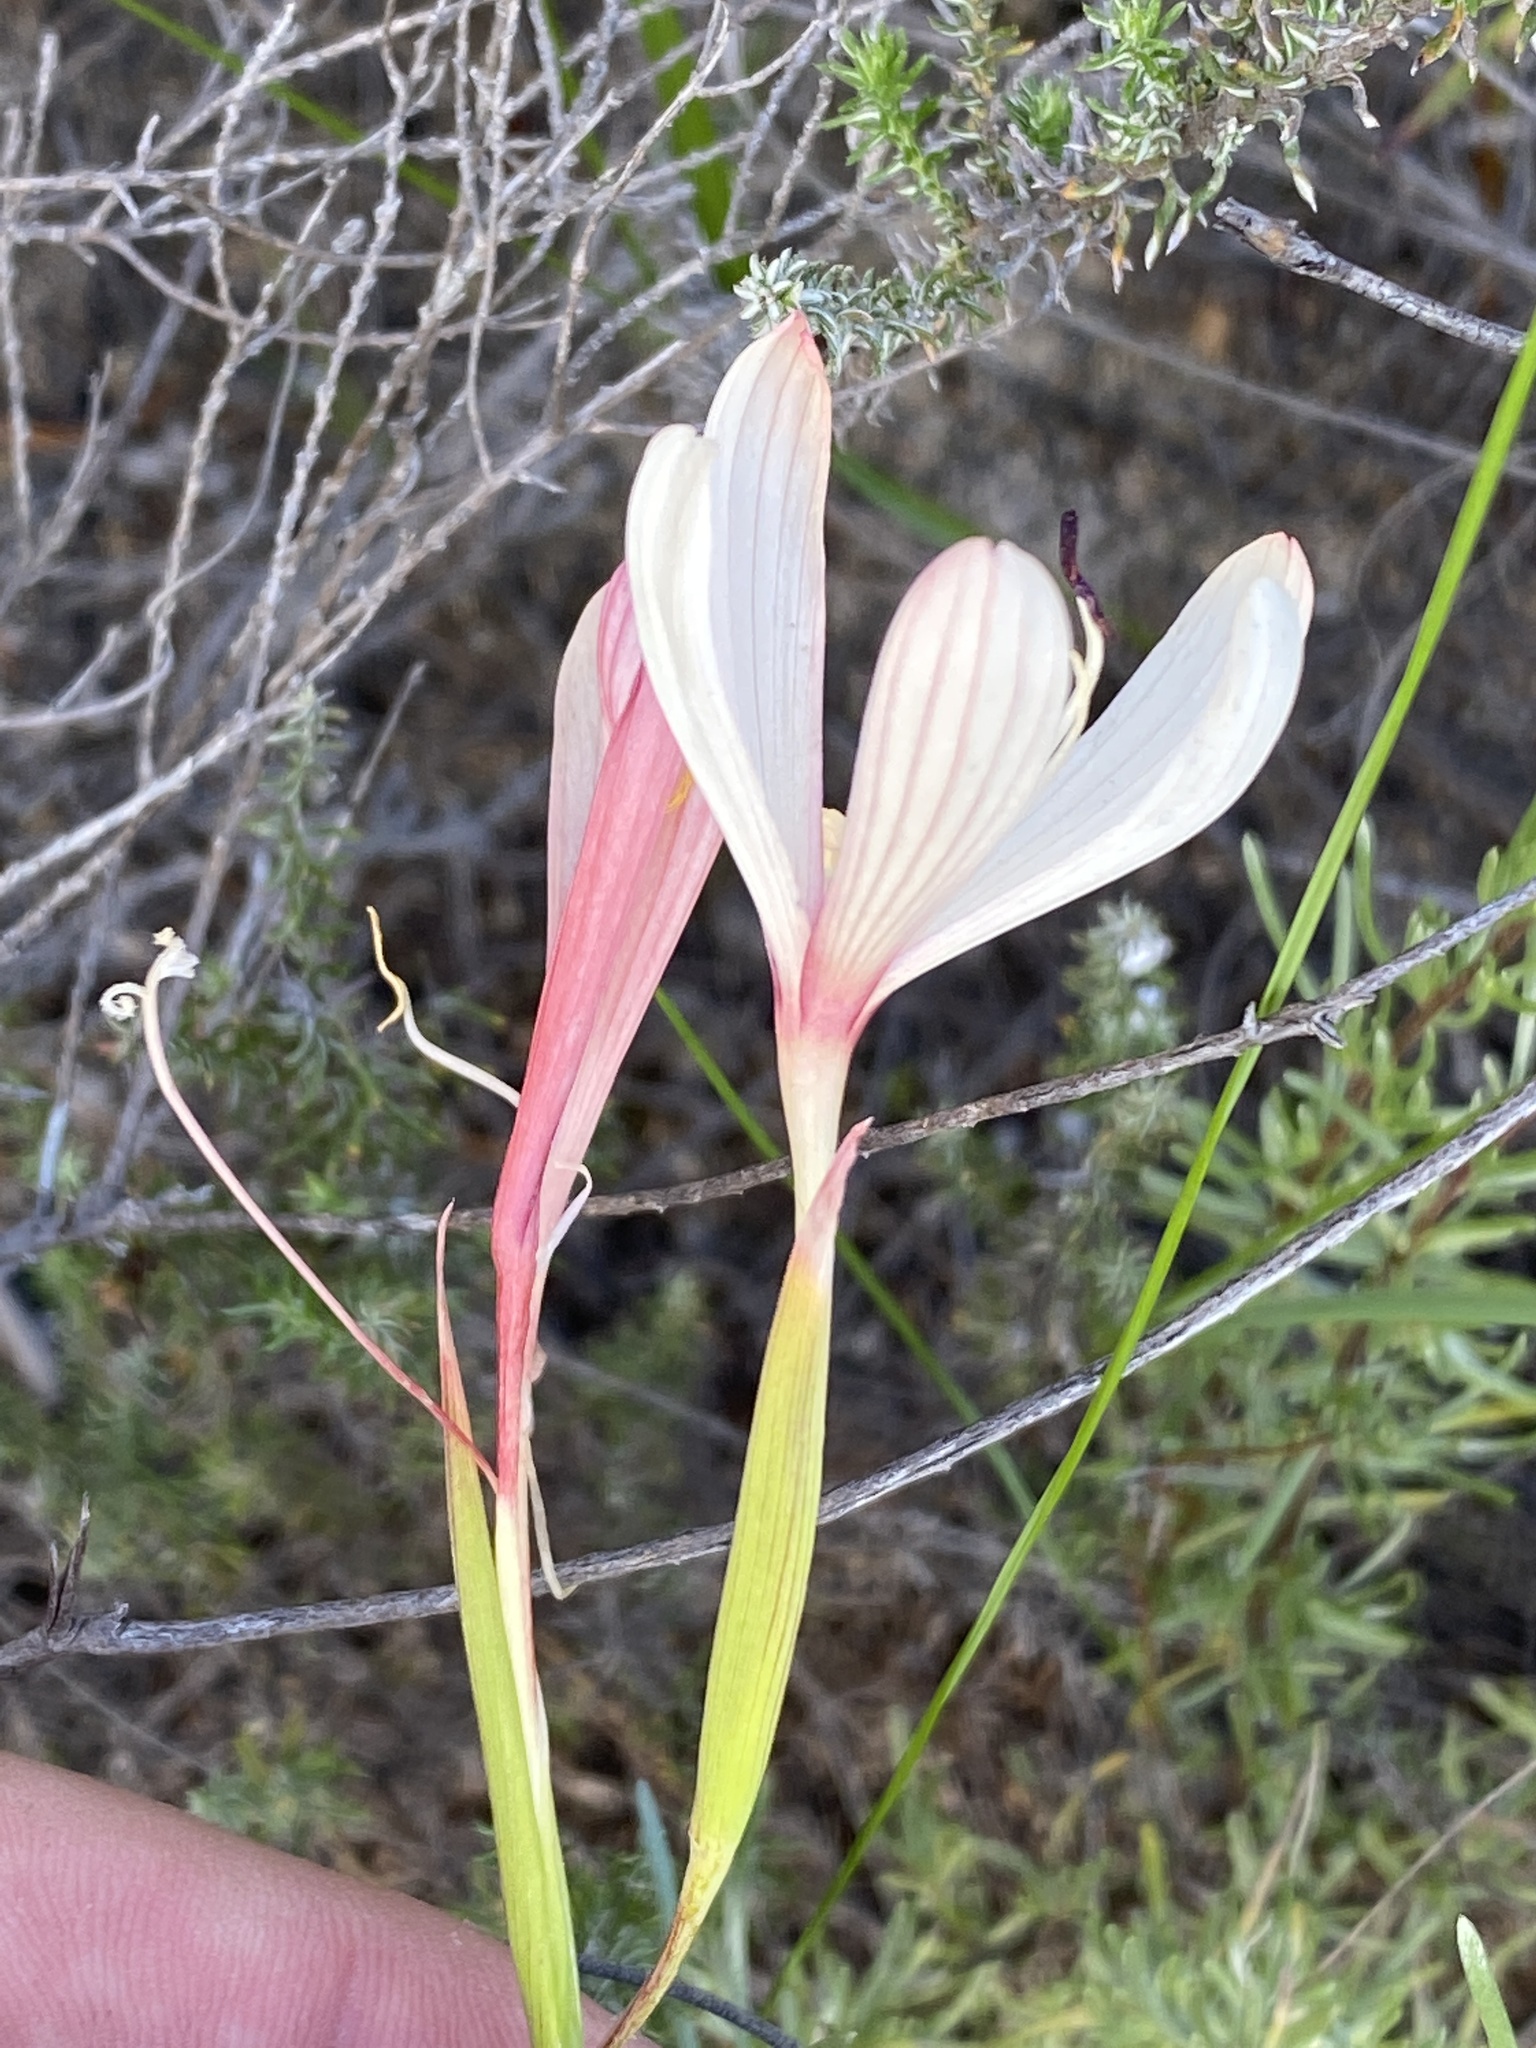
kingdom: Plantae
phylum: Tracheophyta
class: Liliopsida
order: Asparagales
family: Iridaceae
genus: Geissorhiza
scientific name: Geissorhiza confusa
